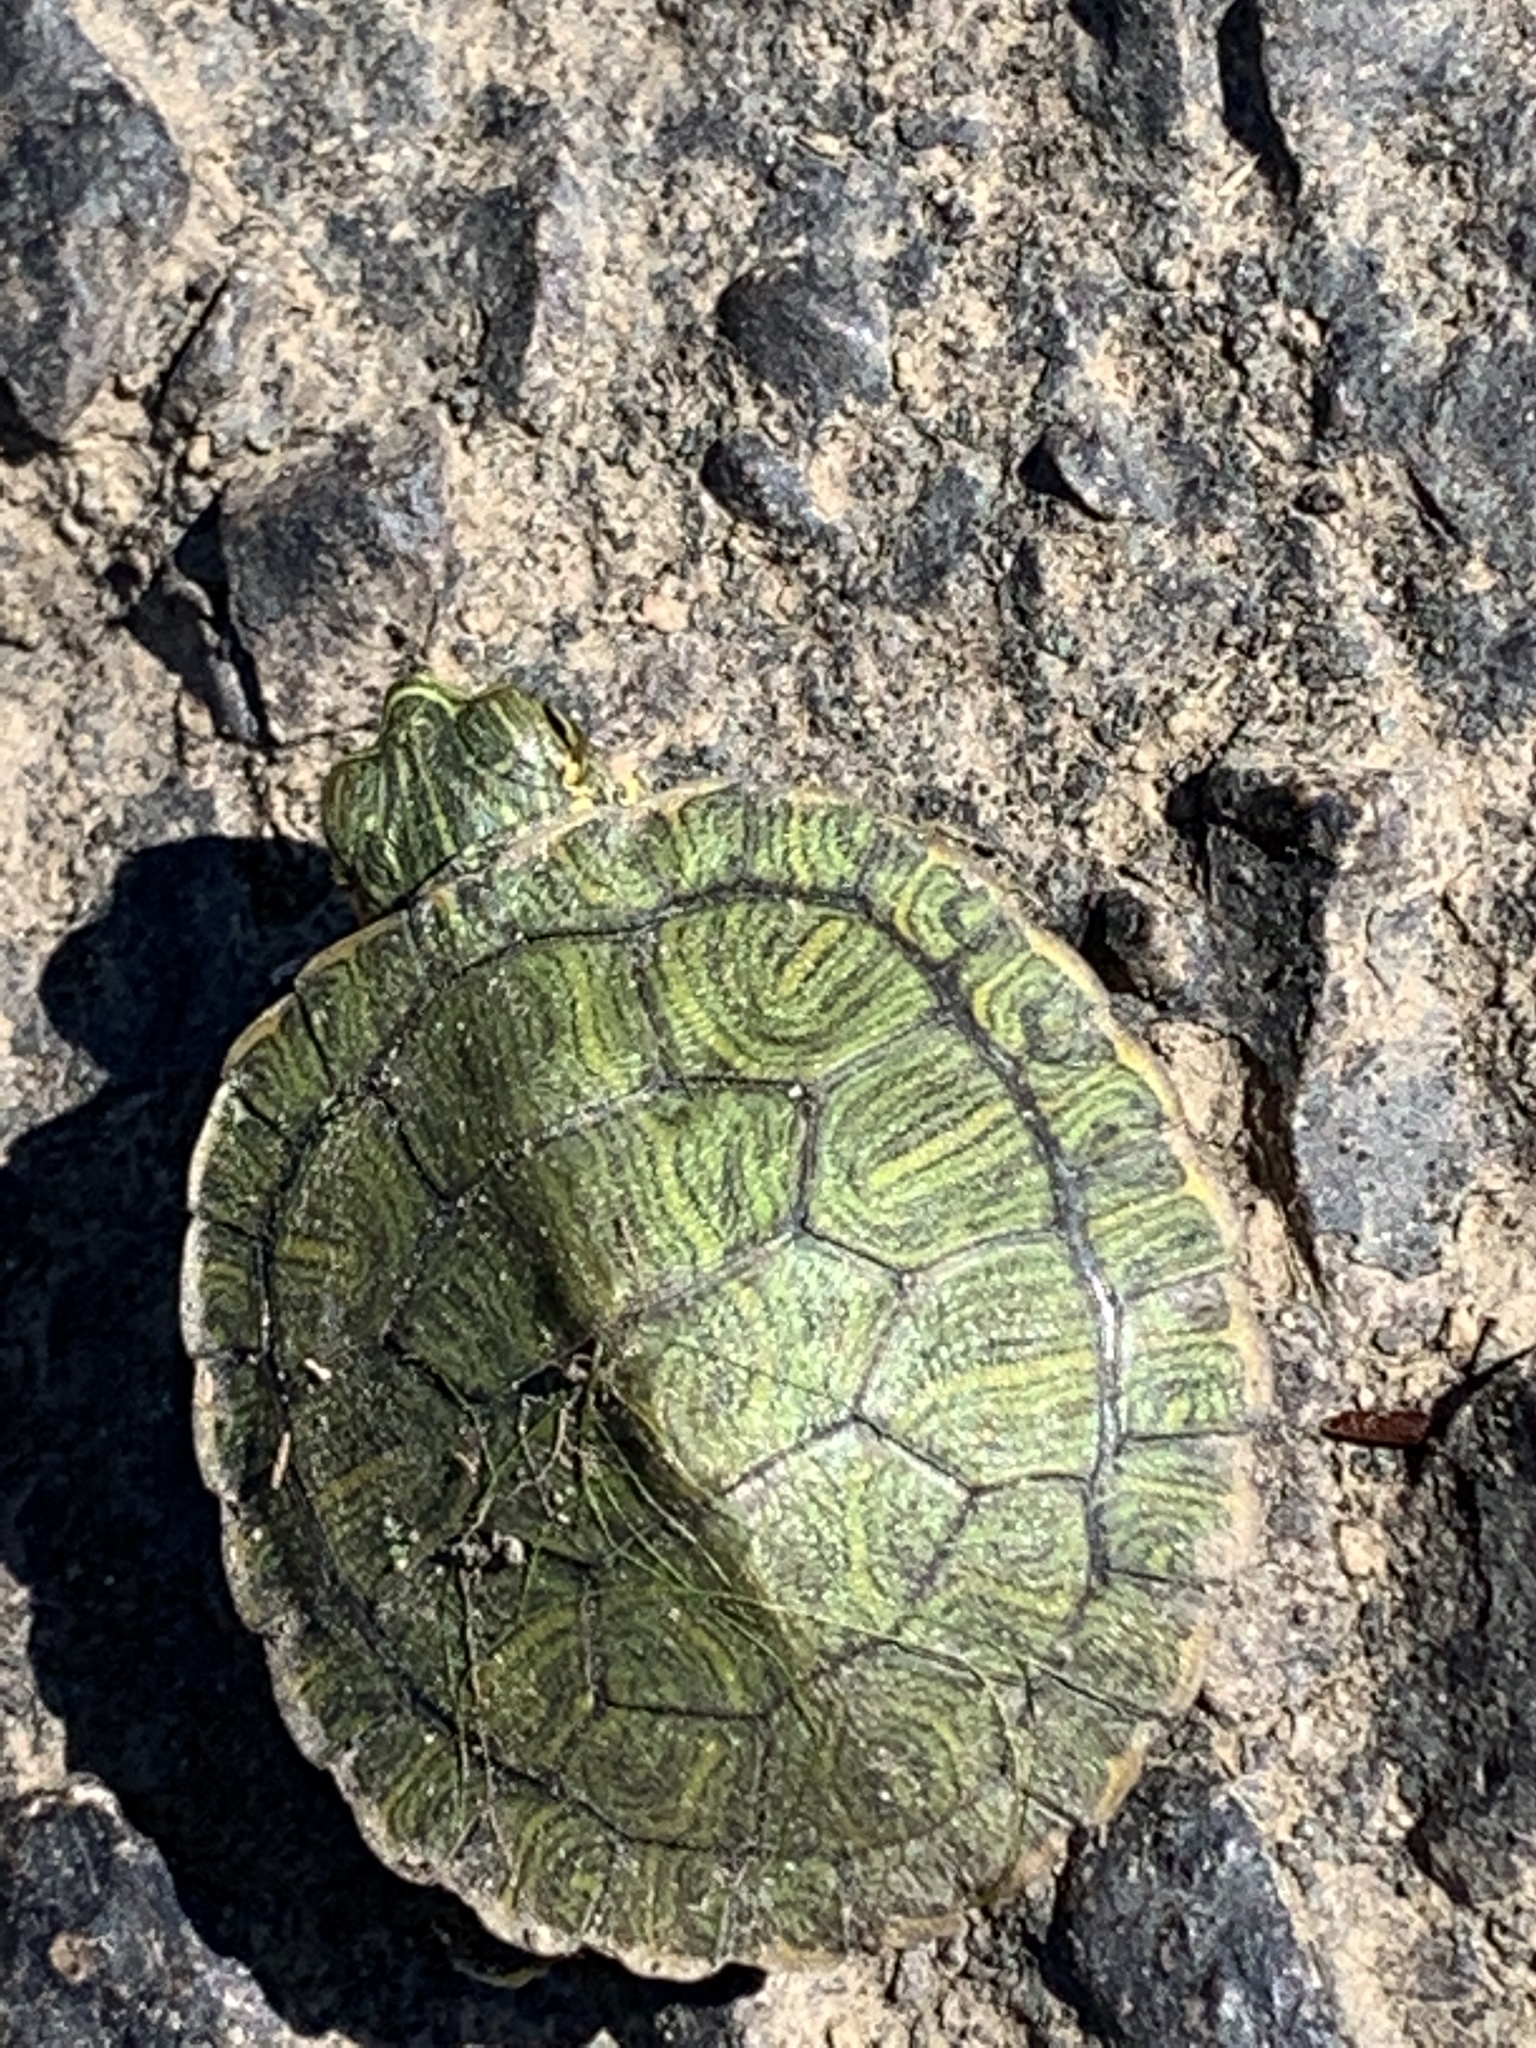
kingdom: Animalia
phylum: Chordata
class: Testudines
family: Emydidae
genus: Trachemys
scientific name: Trachemys scripta
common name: Slider
